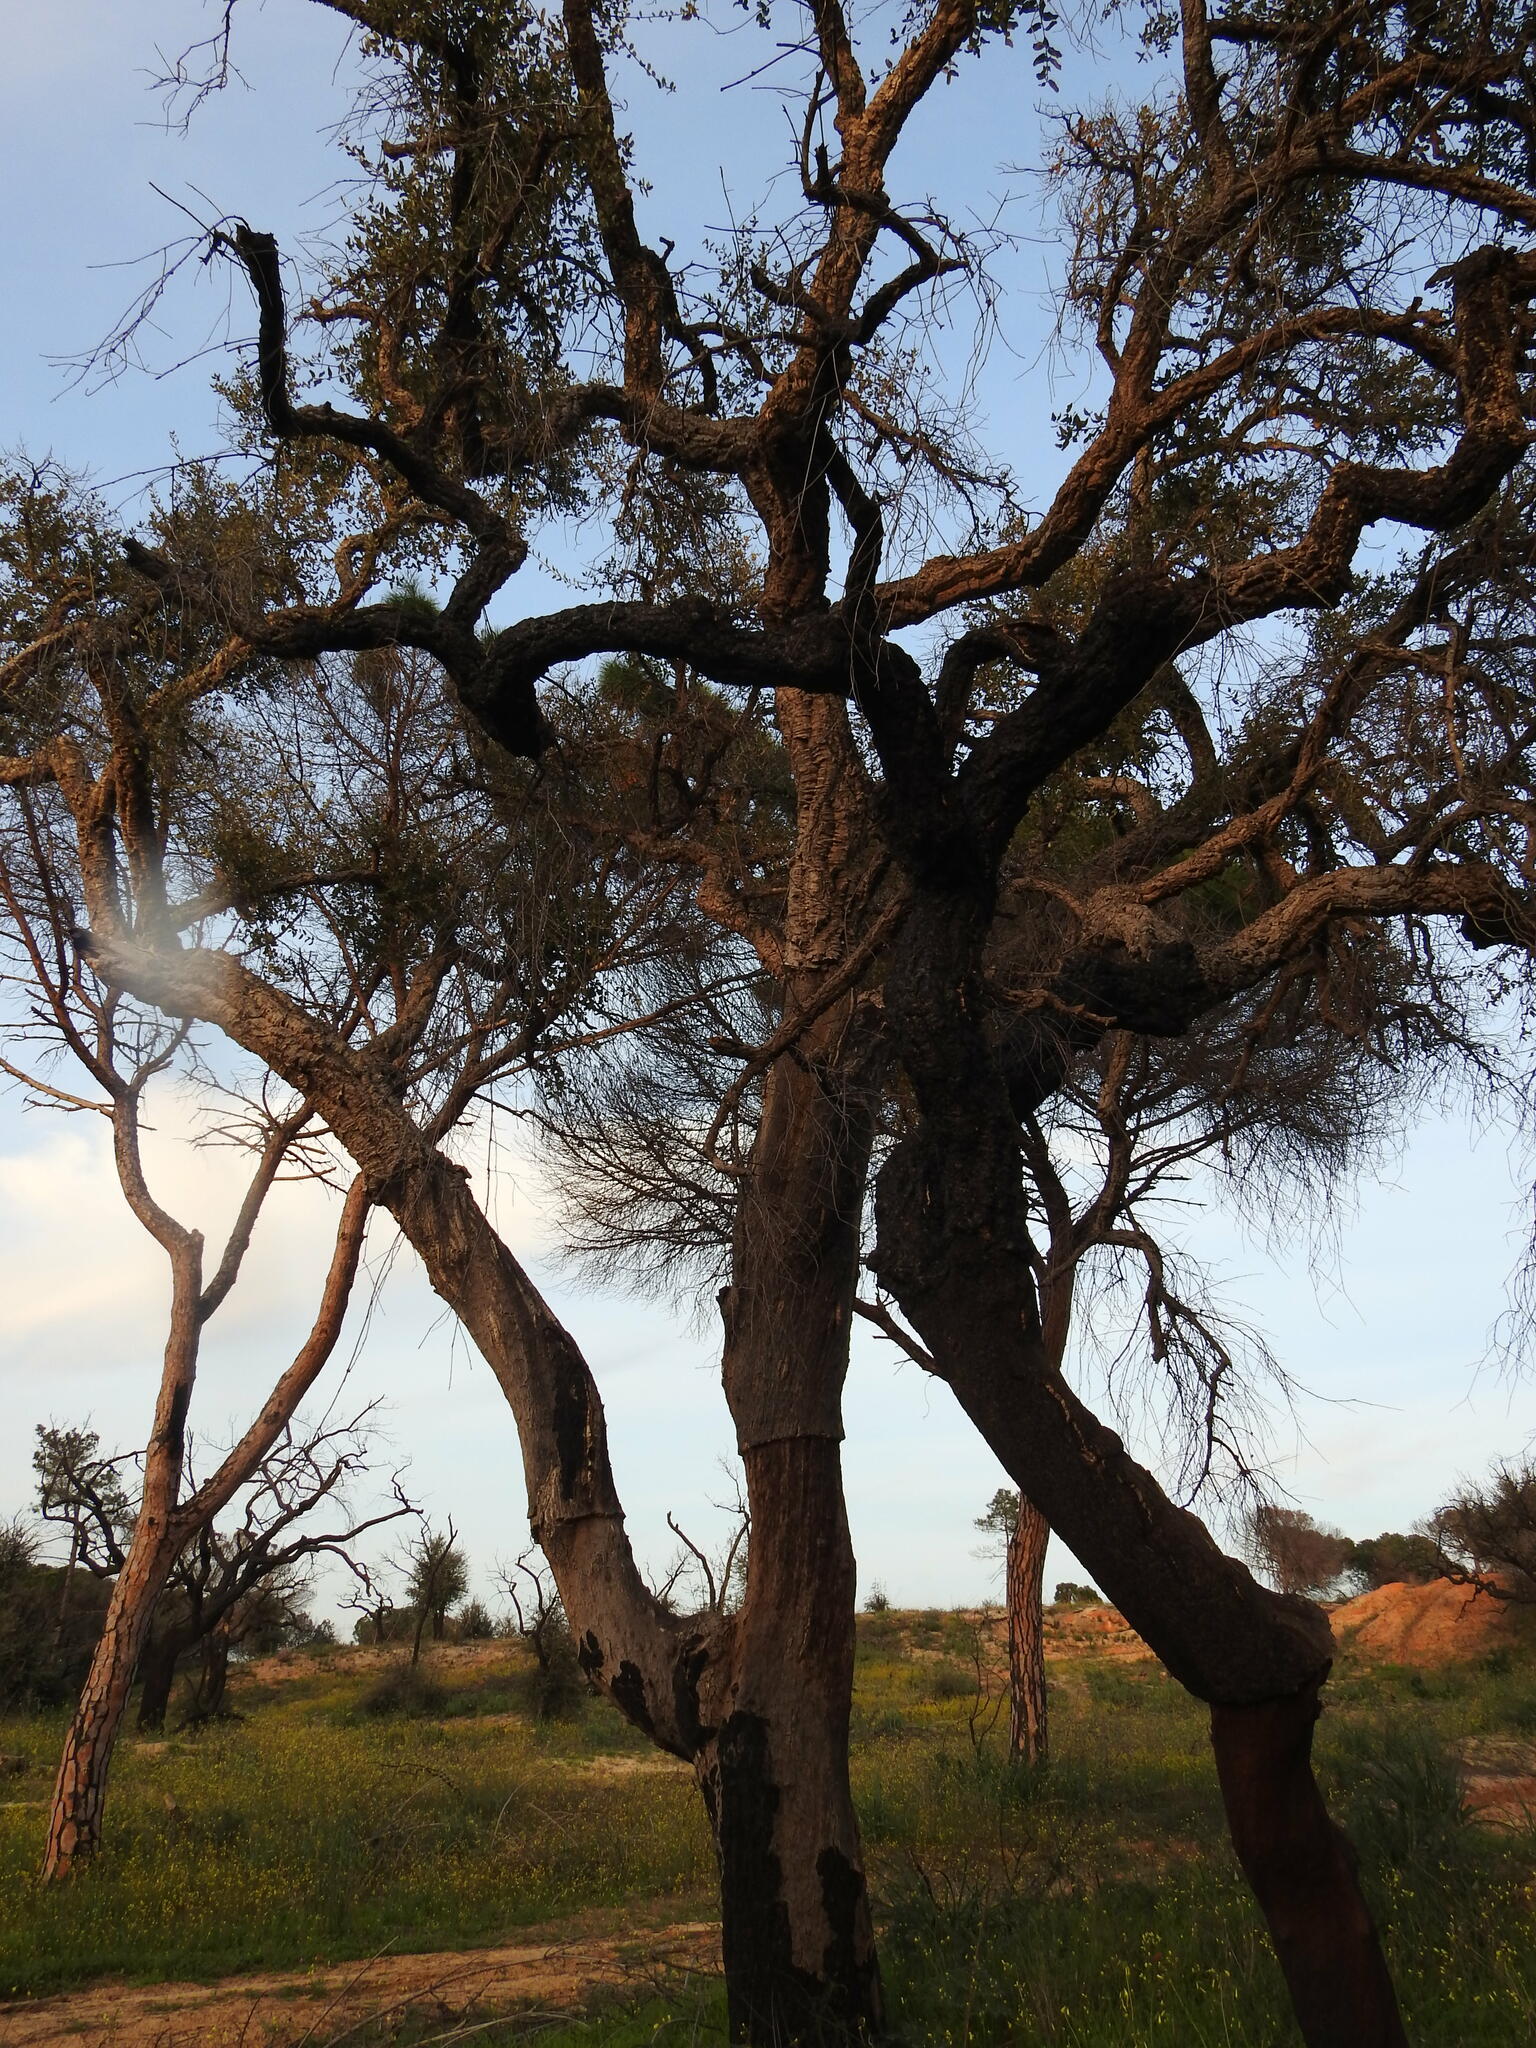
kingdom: Plantae
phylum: Tracheophyta
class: Magnoliopsida
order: Fagales
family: Fagaceae
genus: Quercus
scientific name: Quercus suber
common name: Cork oak
